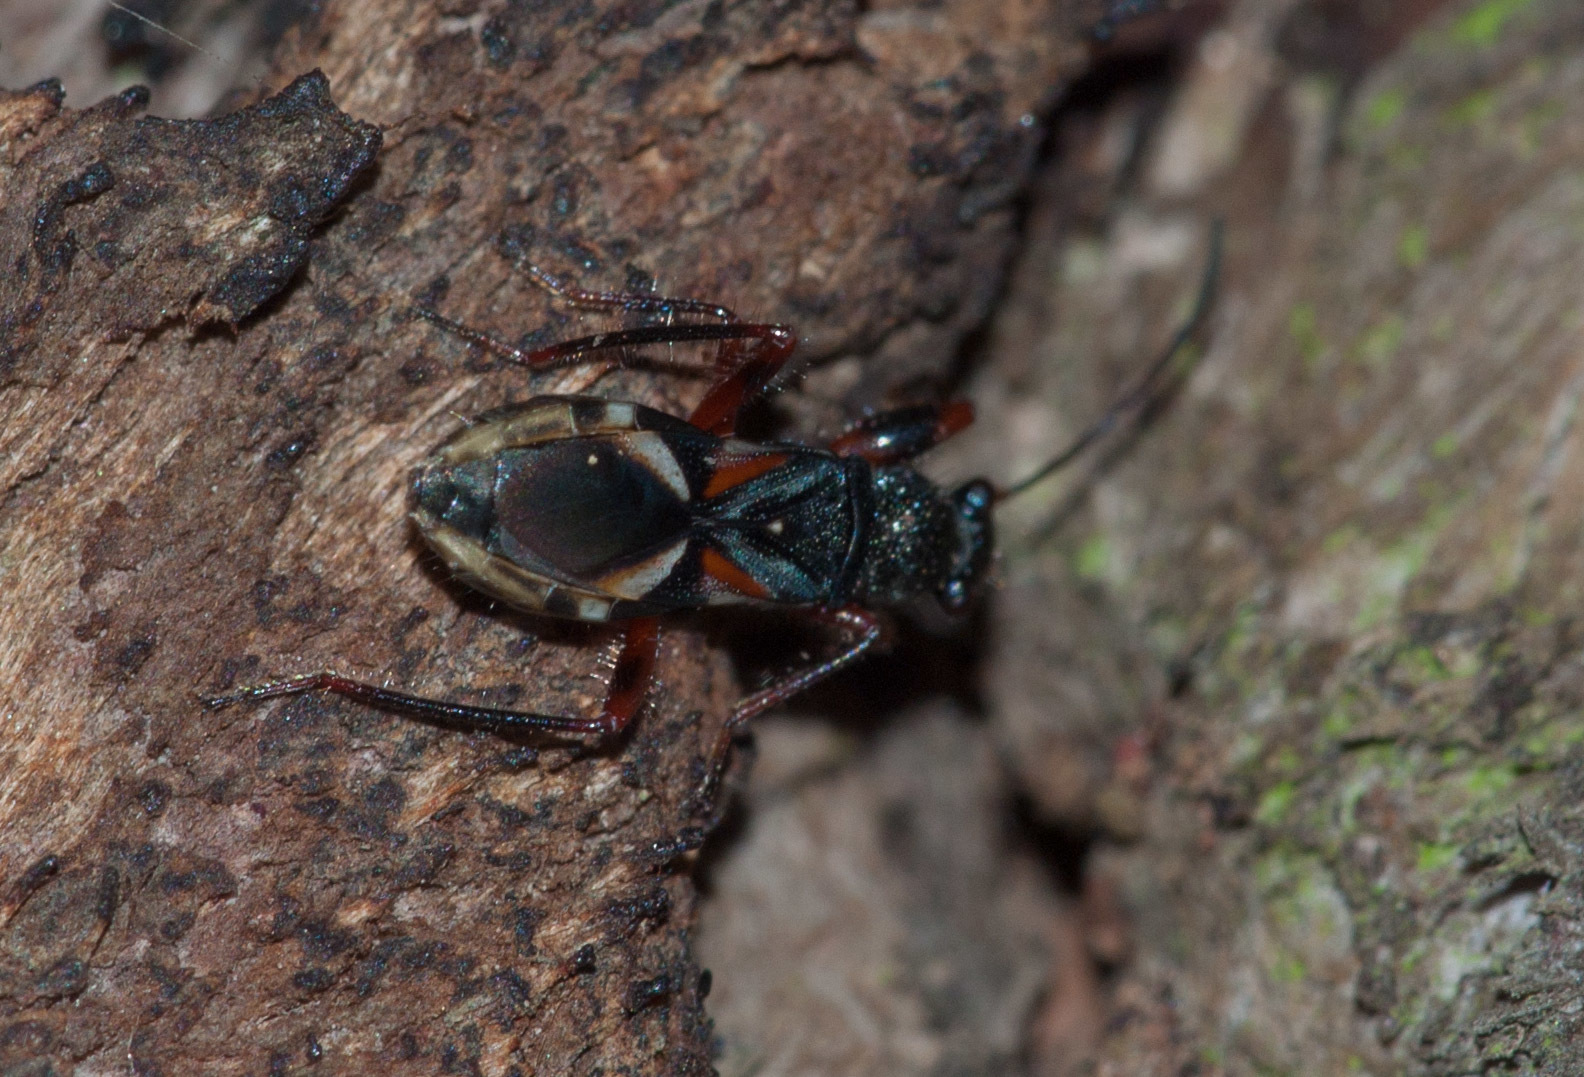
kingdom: Animalia
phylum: Arthropoda
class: Insecta
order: Hemiptera
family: Rhyparochromidae
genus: Daerlac
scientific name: Daerlac cephalotes
